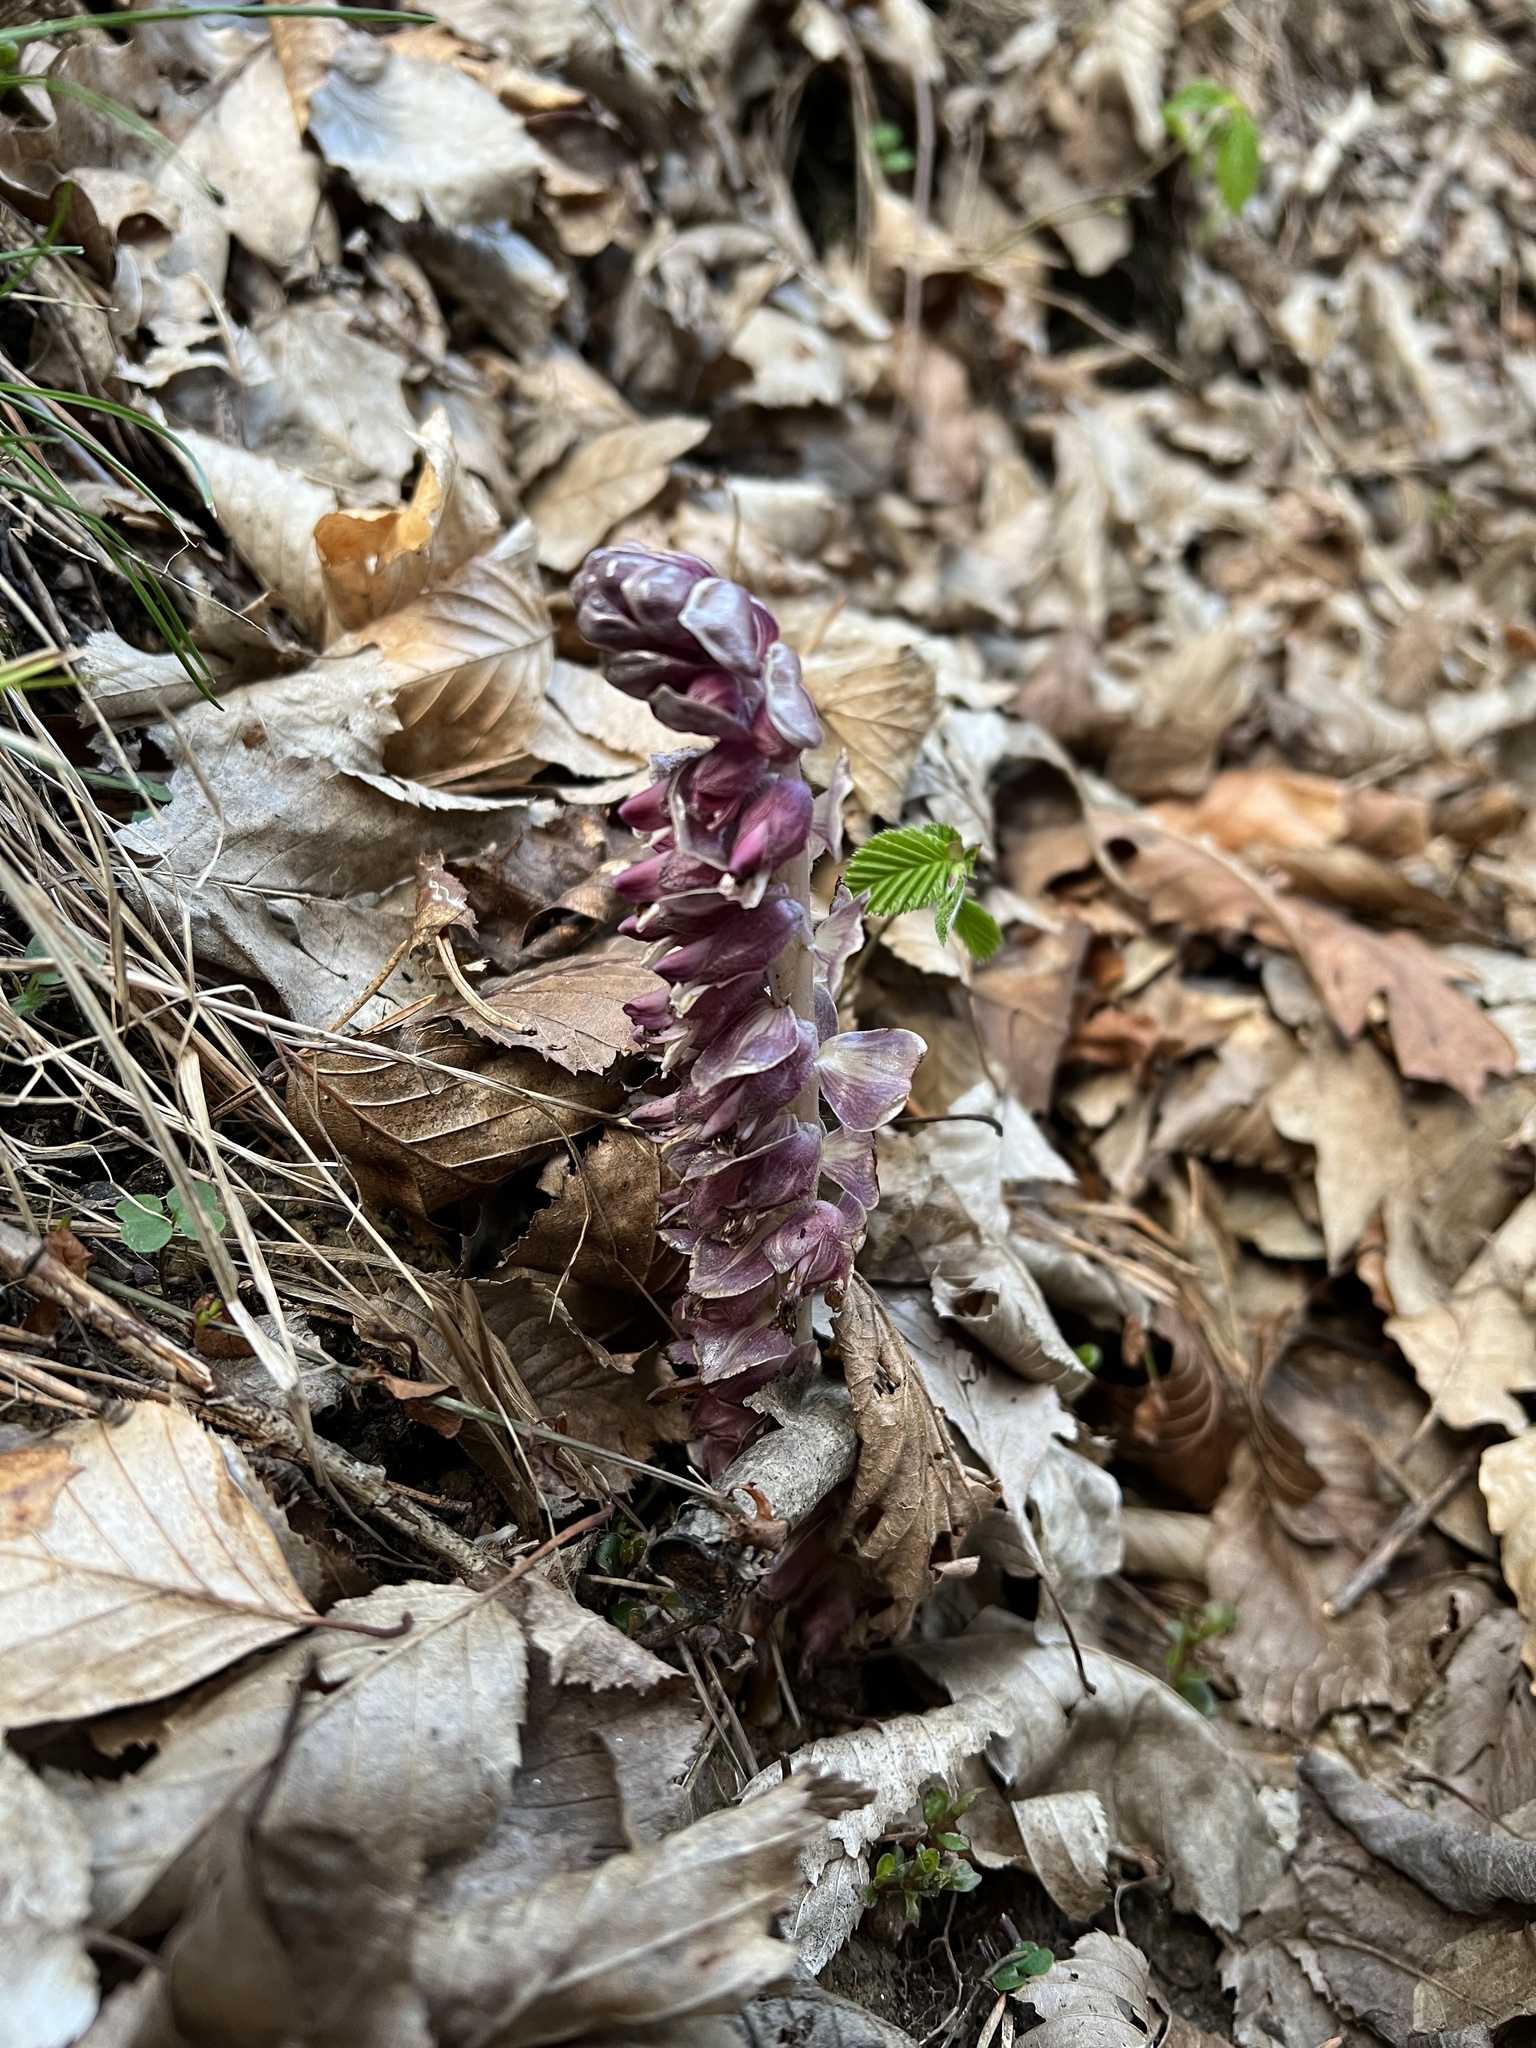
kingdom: Plantae
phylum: Tracheophyta
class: Magnoliopsida
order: Lamiales
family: Orobanchaceae
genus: Lathraea
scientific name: Lathraea squamaria
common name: Toothwort
